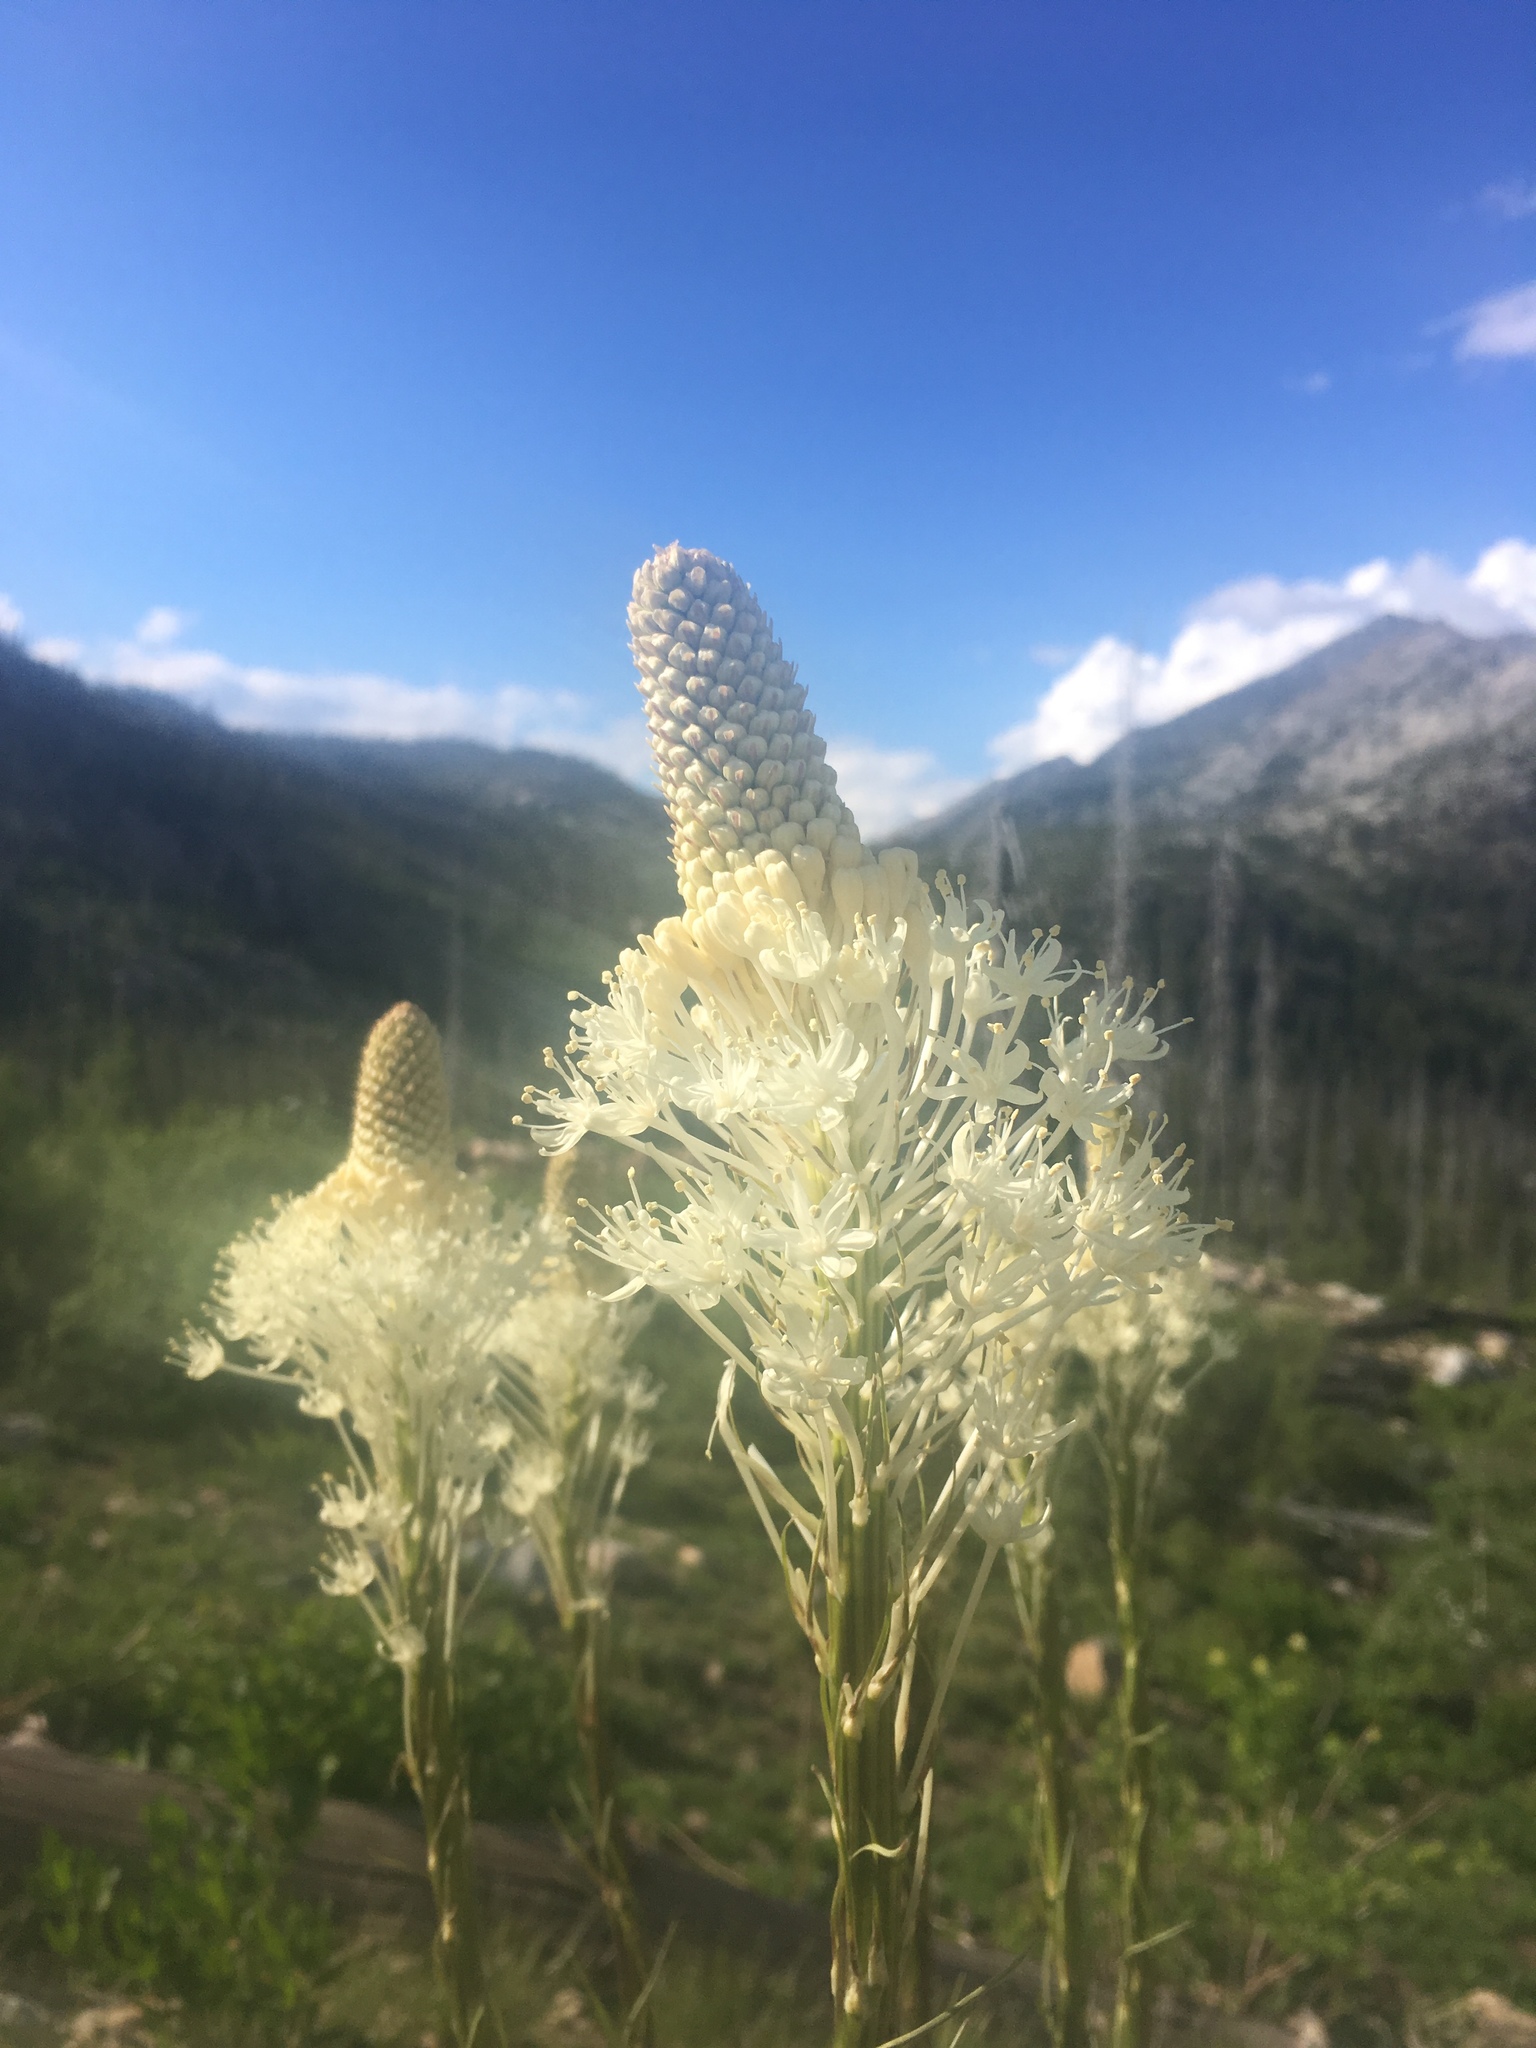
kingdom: Plantae
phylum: Tracheophyta
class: Liliopsida
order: Liliales
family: Melanthiaceae
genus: Xerophyllum
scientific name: Xerophyllum tenax
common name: Bear-grass
